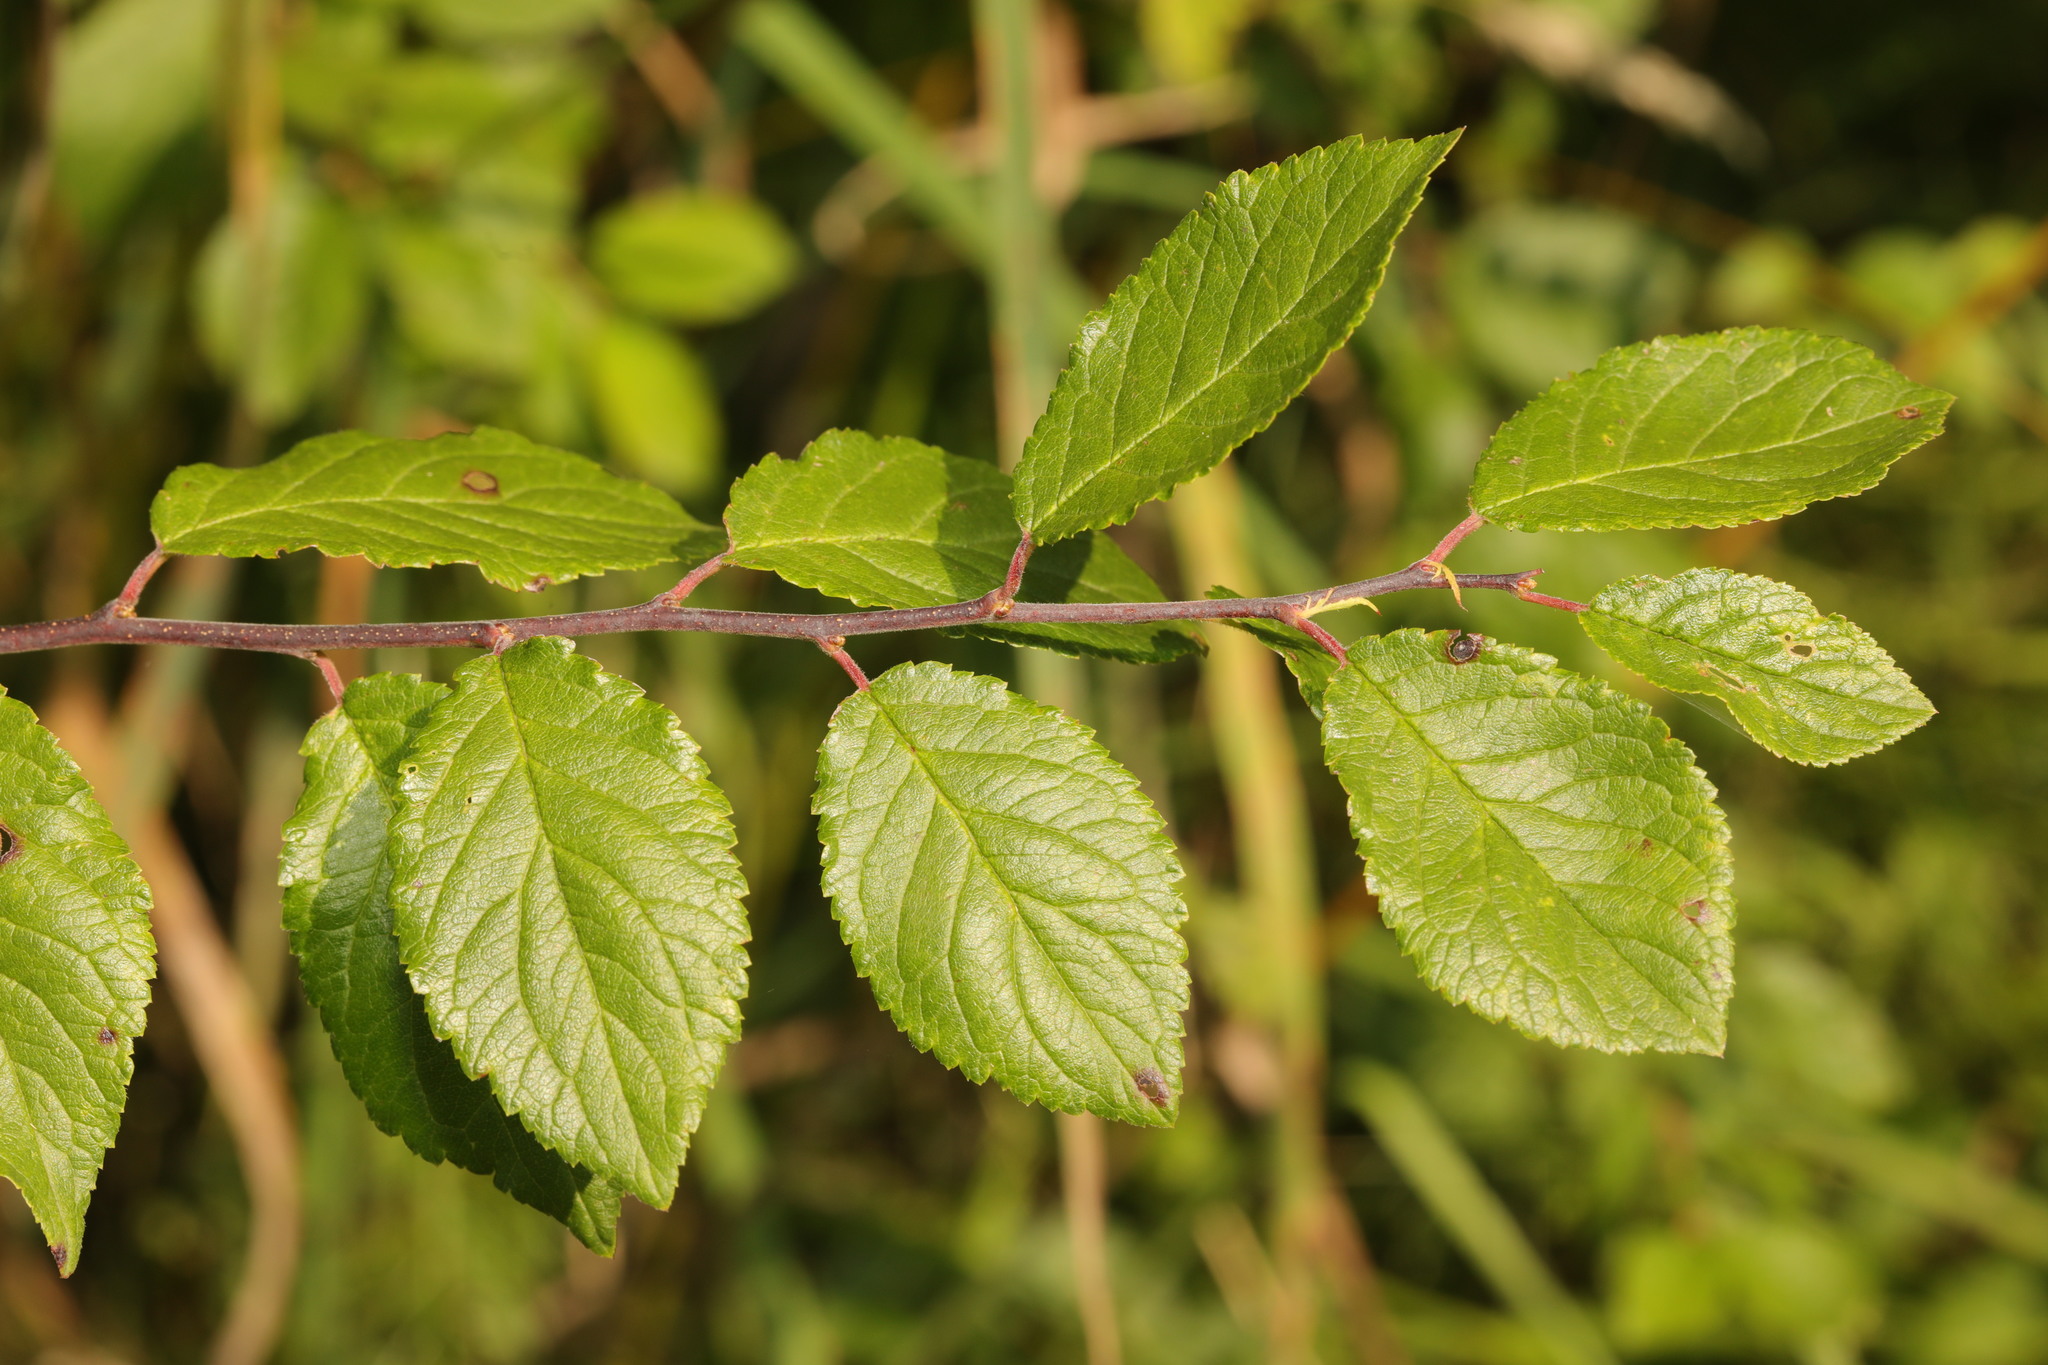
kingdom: Plantae
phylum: Tracheophyta
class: Magnoliopsida
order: Rosales
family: Rosaceae
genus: Prunus
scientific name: Prunus spinosa
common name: Blackthorn
